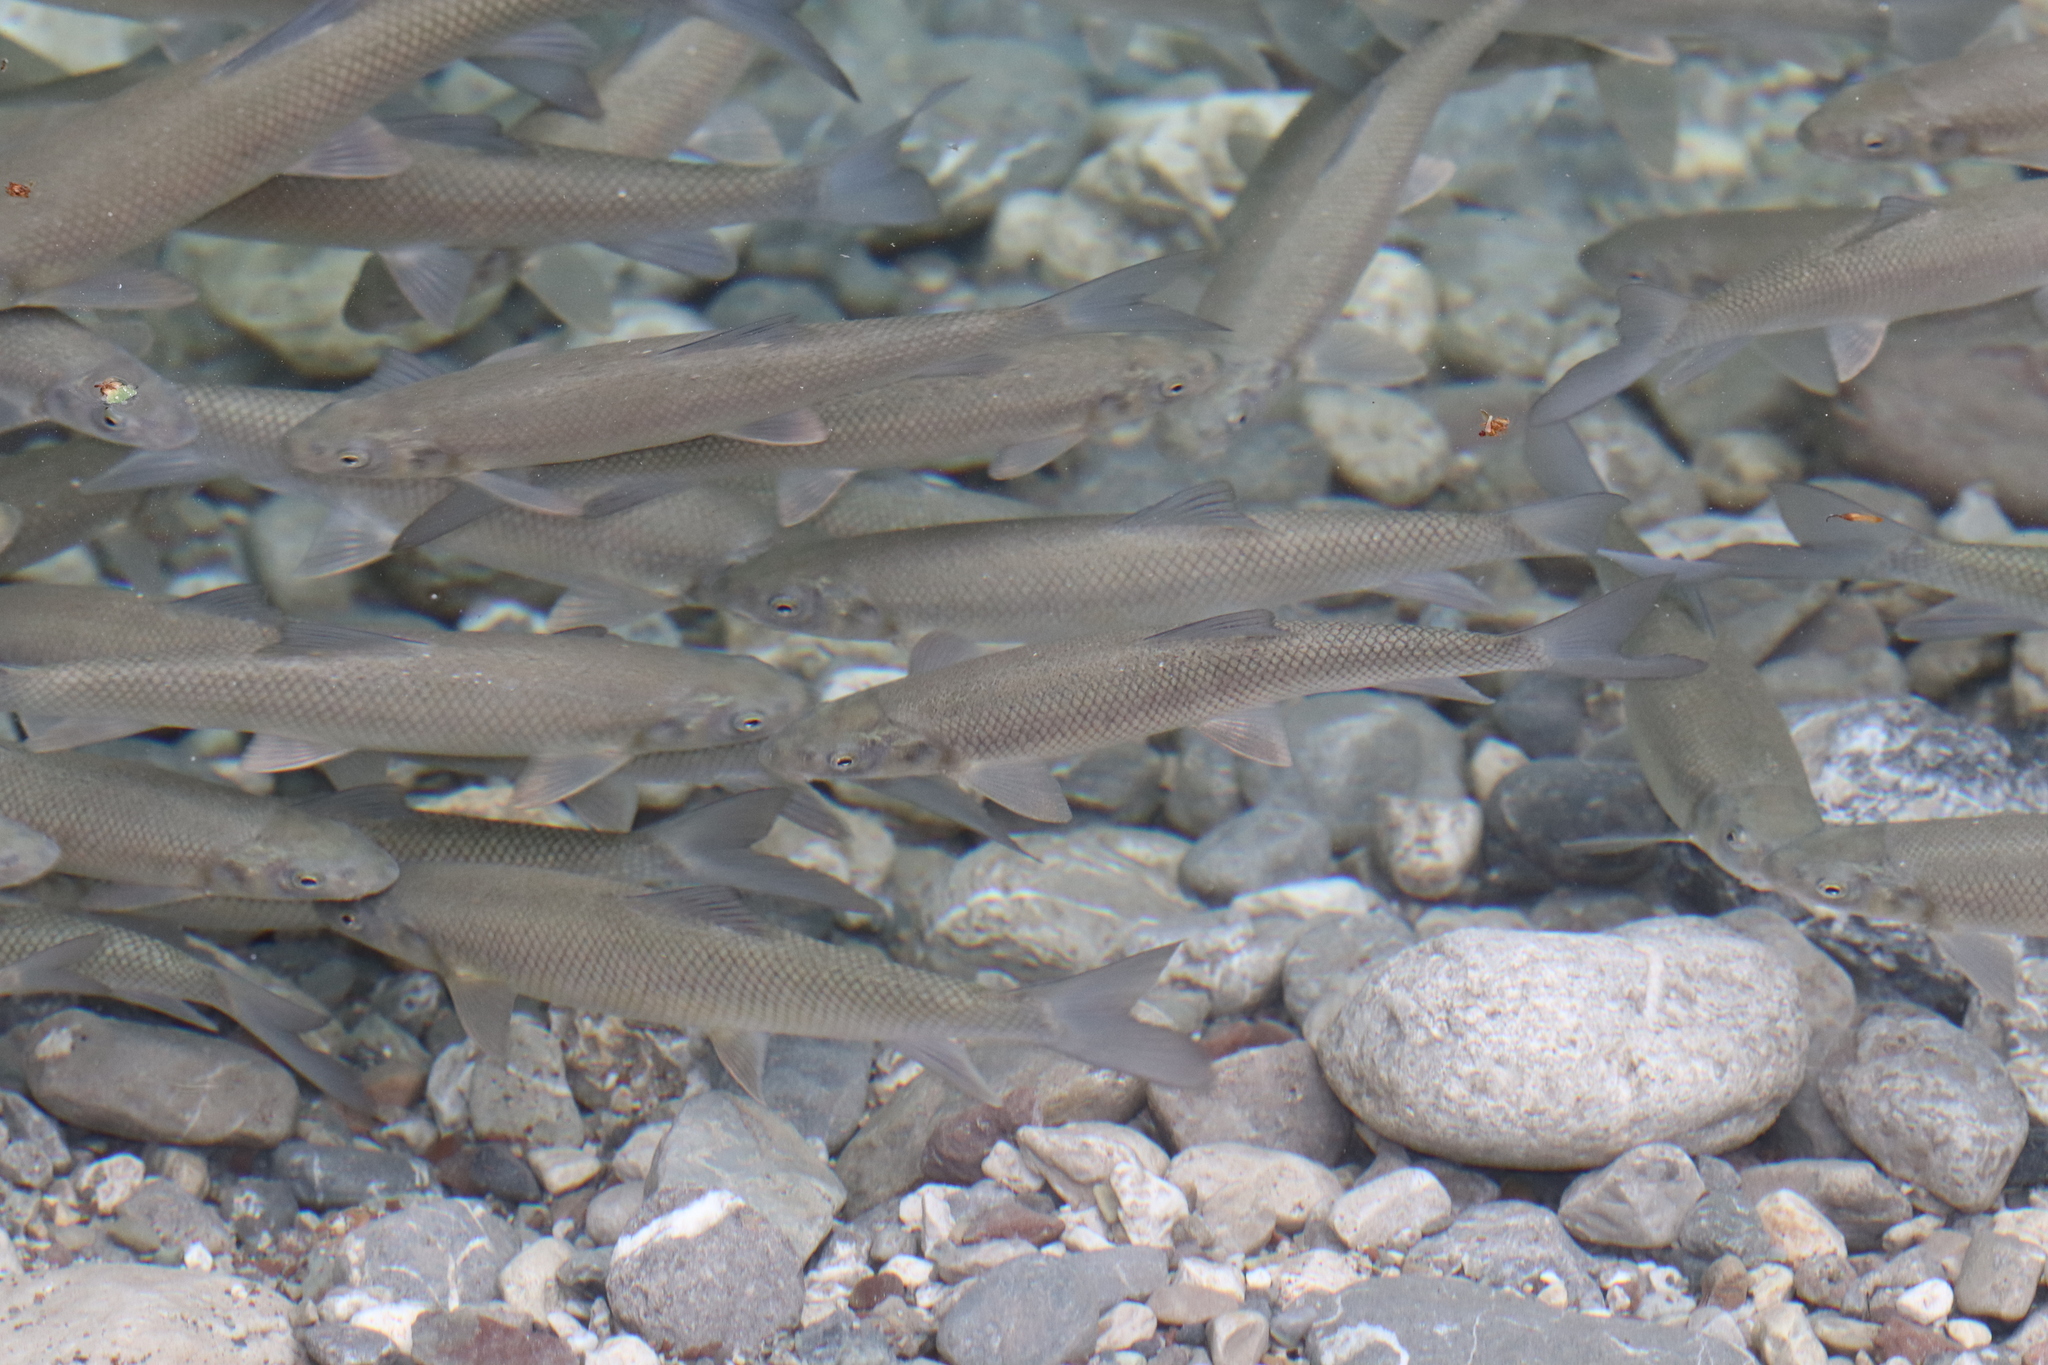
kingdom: Animalia
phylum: Chordata
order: Cypriniformes
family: Cyprinidae
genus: Capoeta
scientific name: Capoeta antalyensis
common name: Pamphylian scraper
